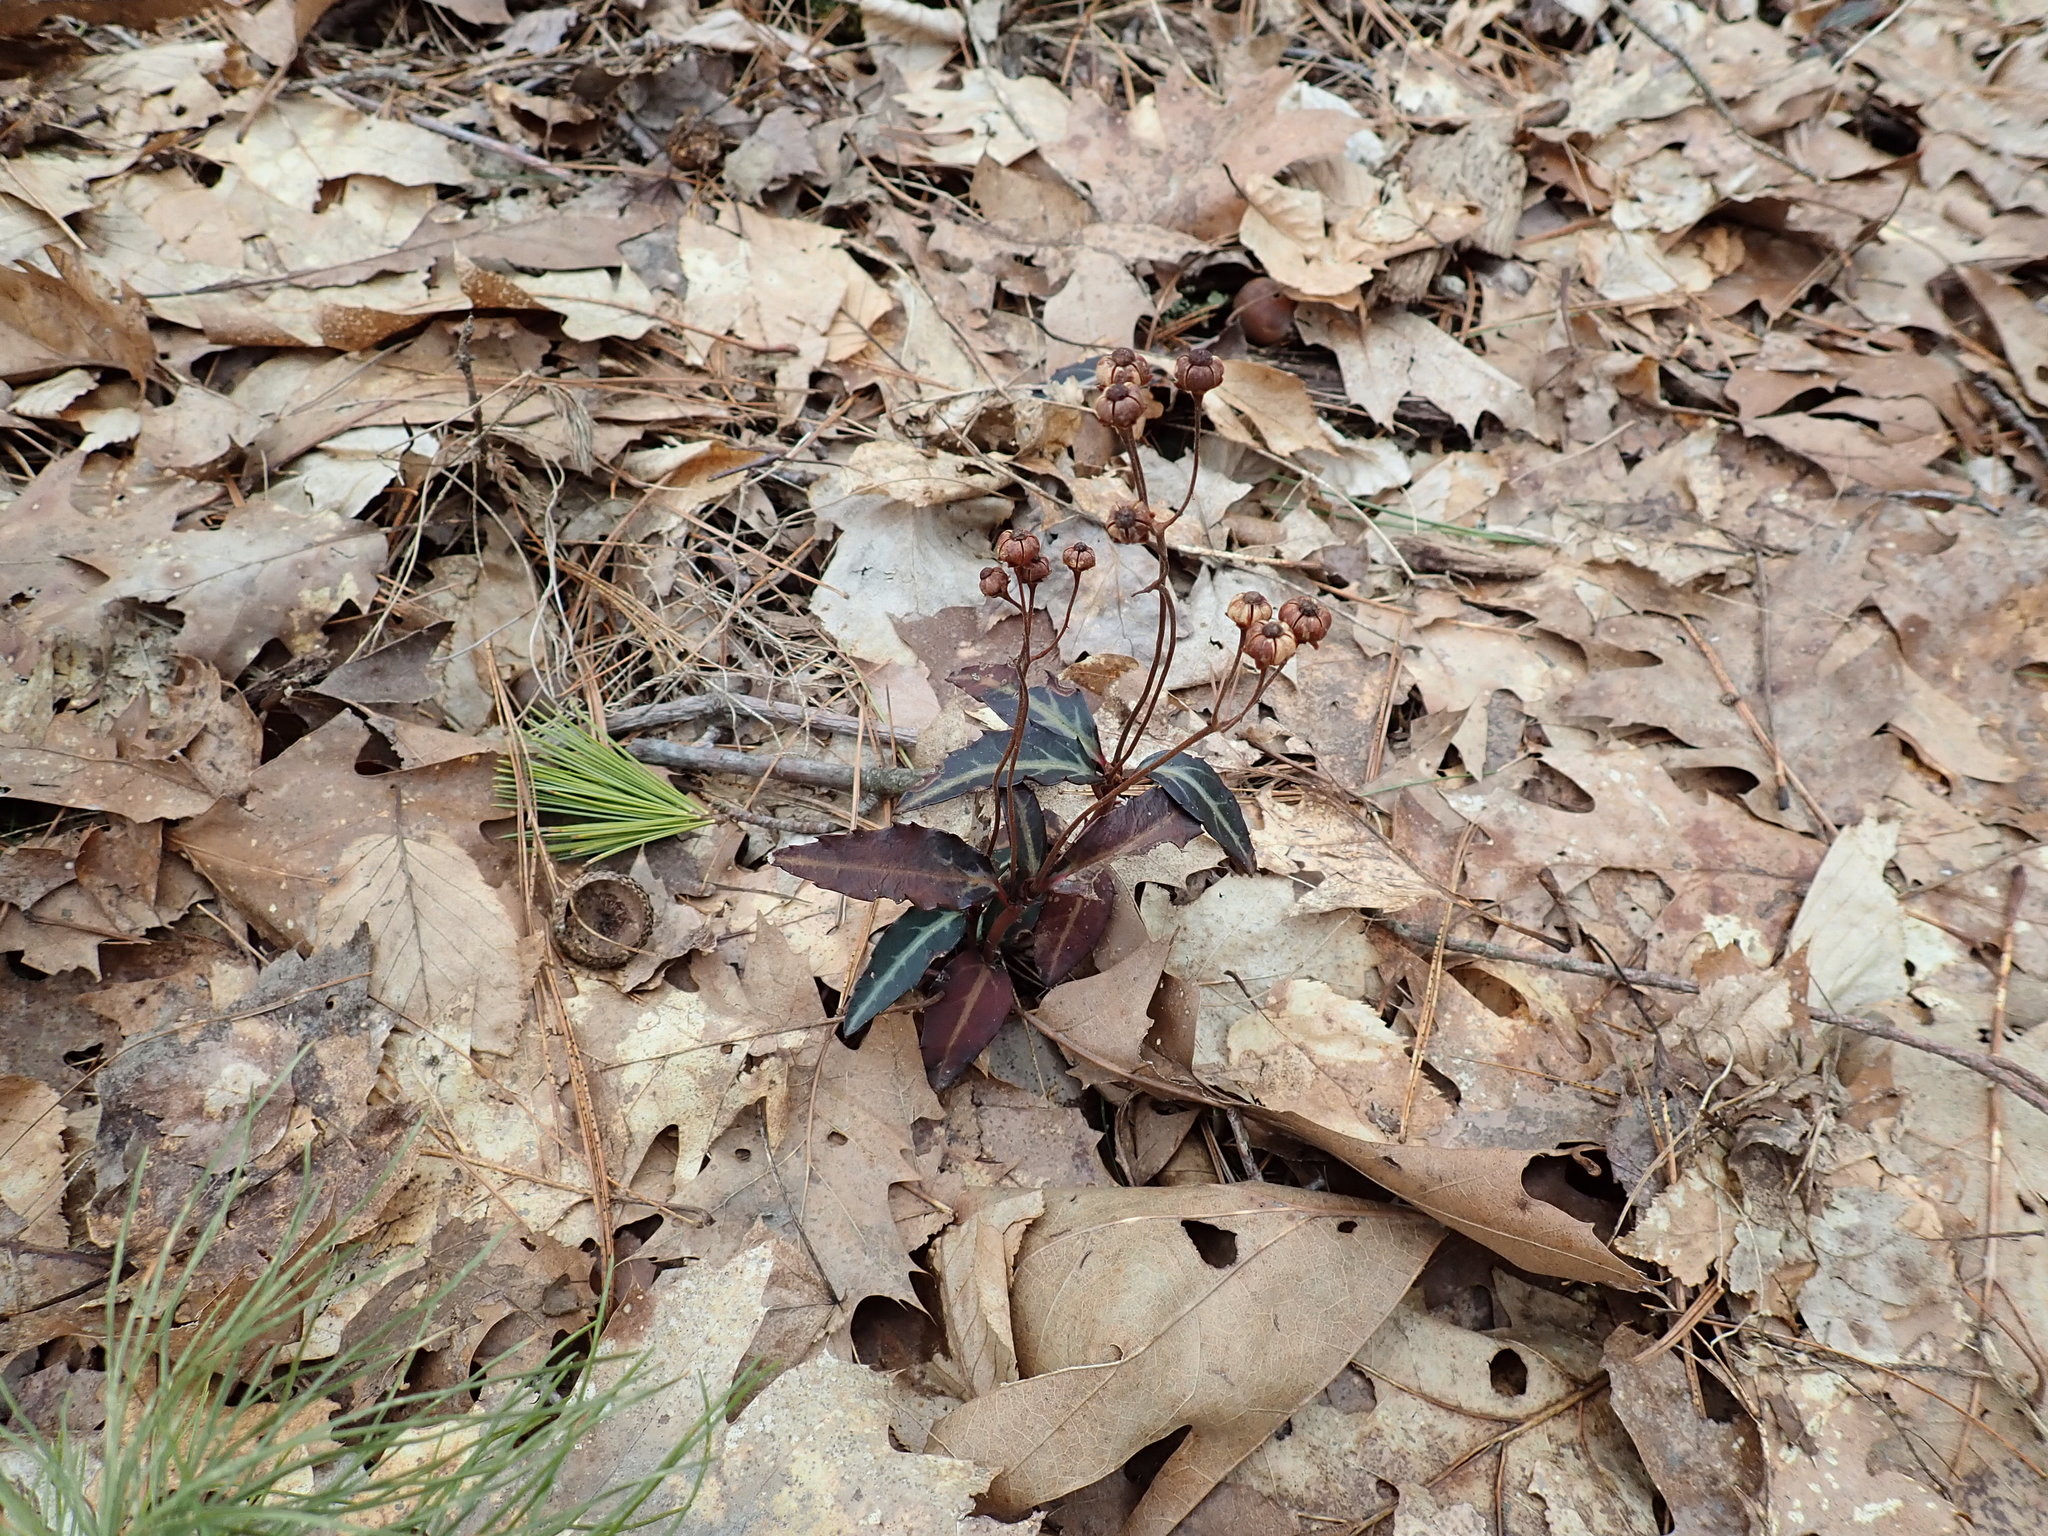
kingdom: Plantae
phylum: Tracheophyta
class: Magnoliopsida
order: Ericales
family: Ericaceae
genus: Chimaphila
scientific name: Chimaphila maculata
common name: Spotted pipsissewa
